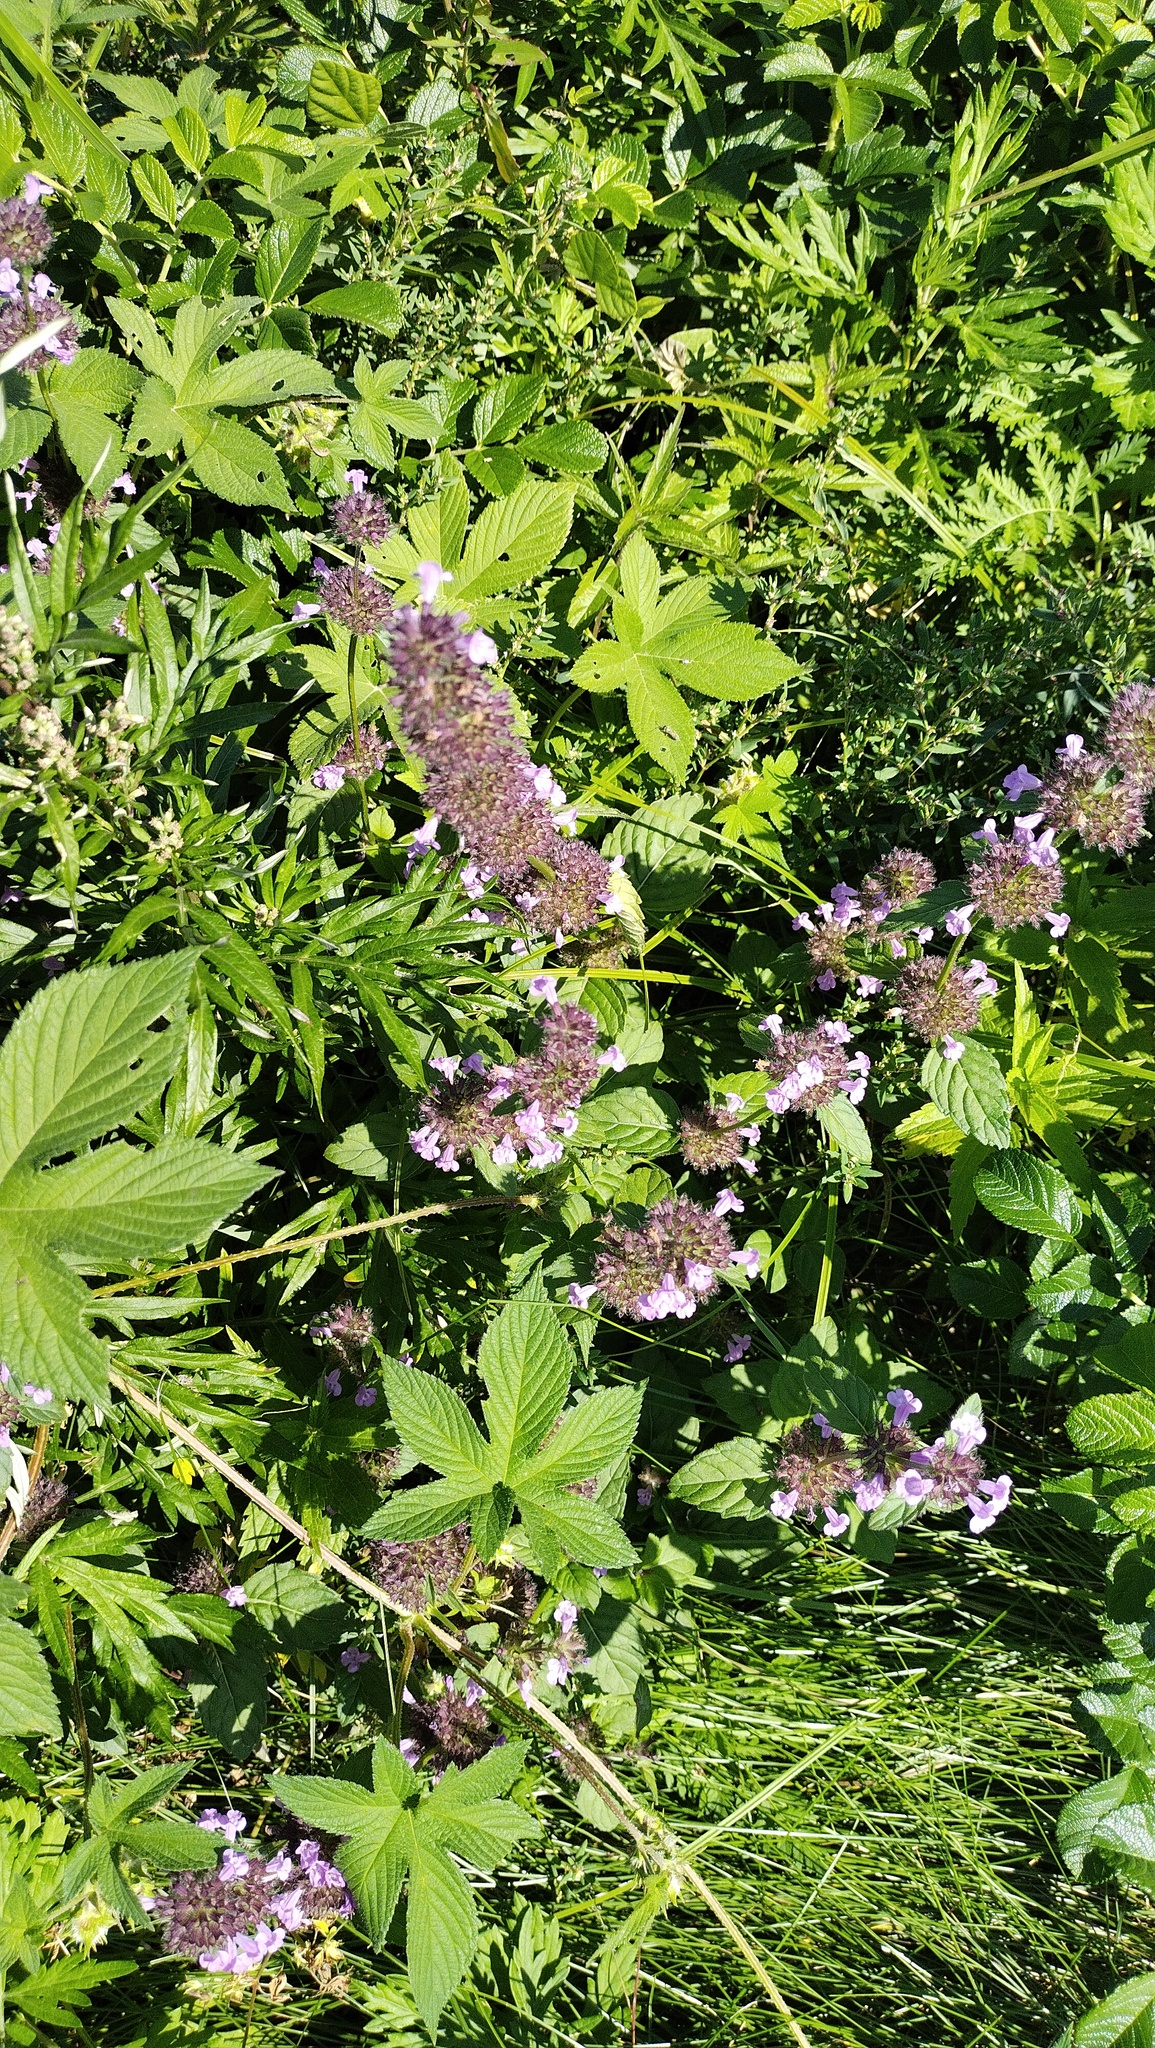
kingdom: Plantae
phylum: Tracheophyta
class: Magnoliopsida
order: Lamiales
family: Lamiaceae
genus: Clinopodium
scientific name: Clinopodium chinense
